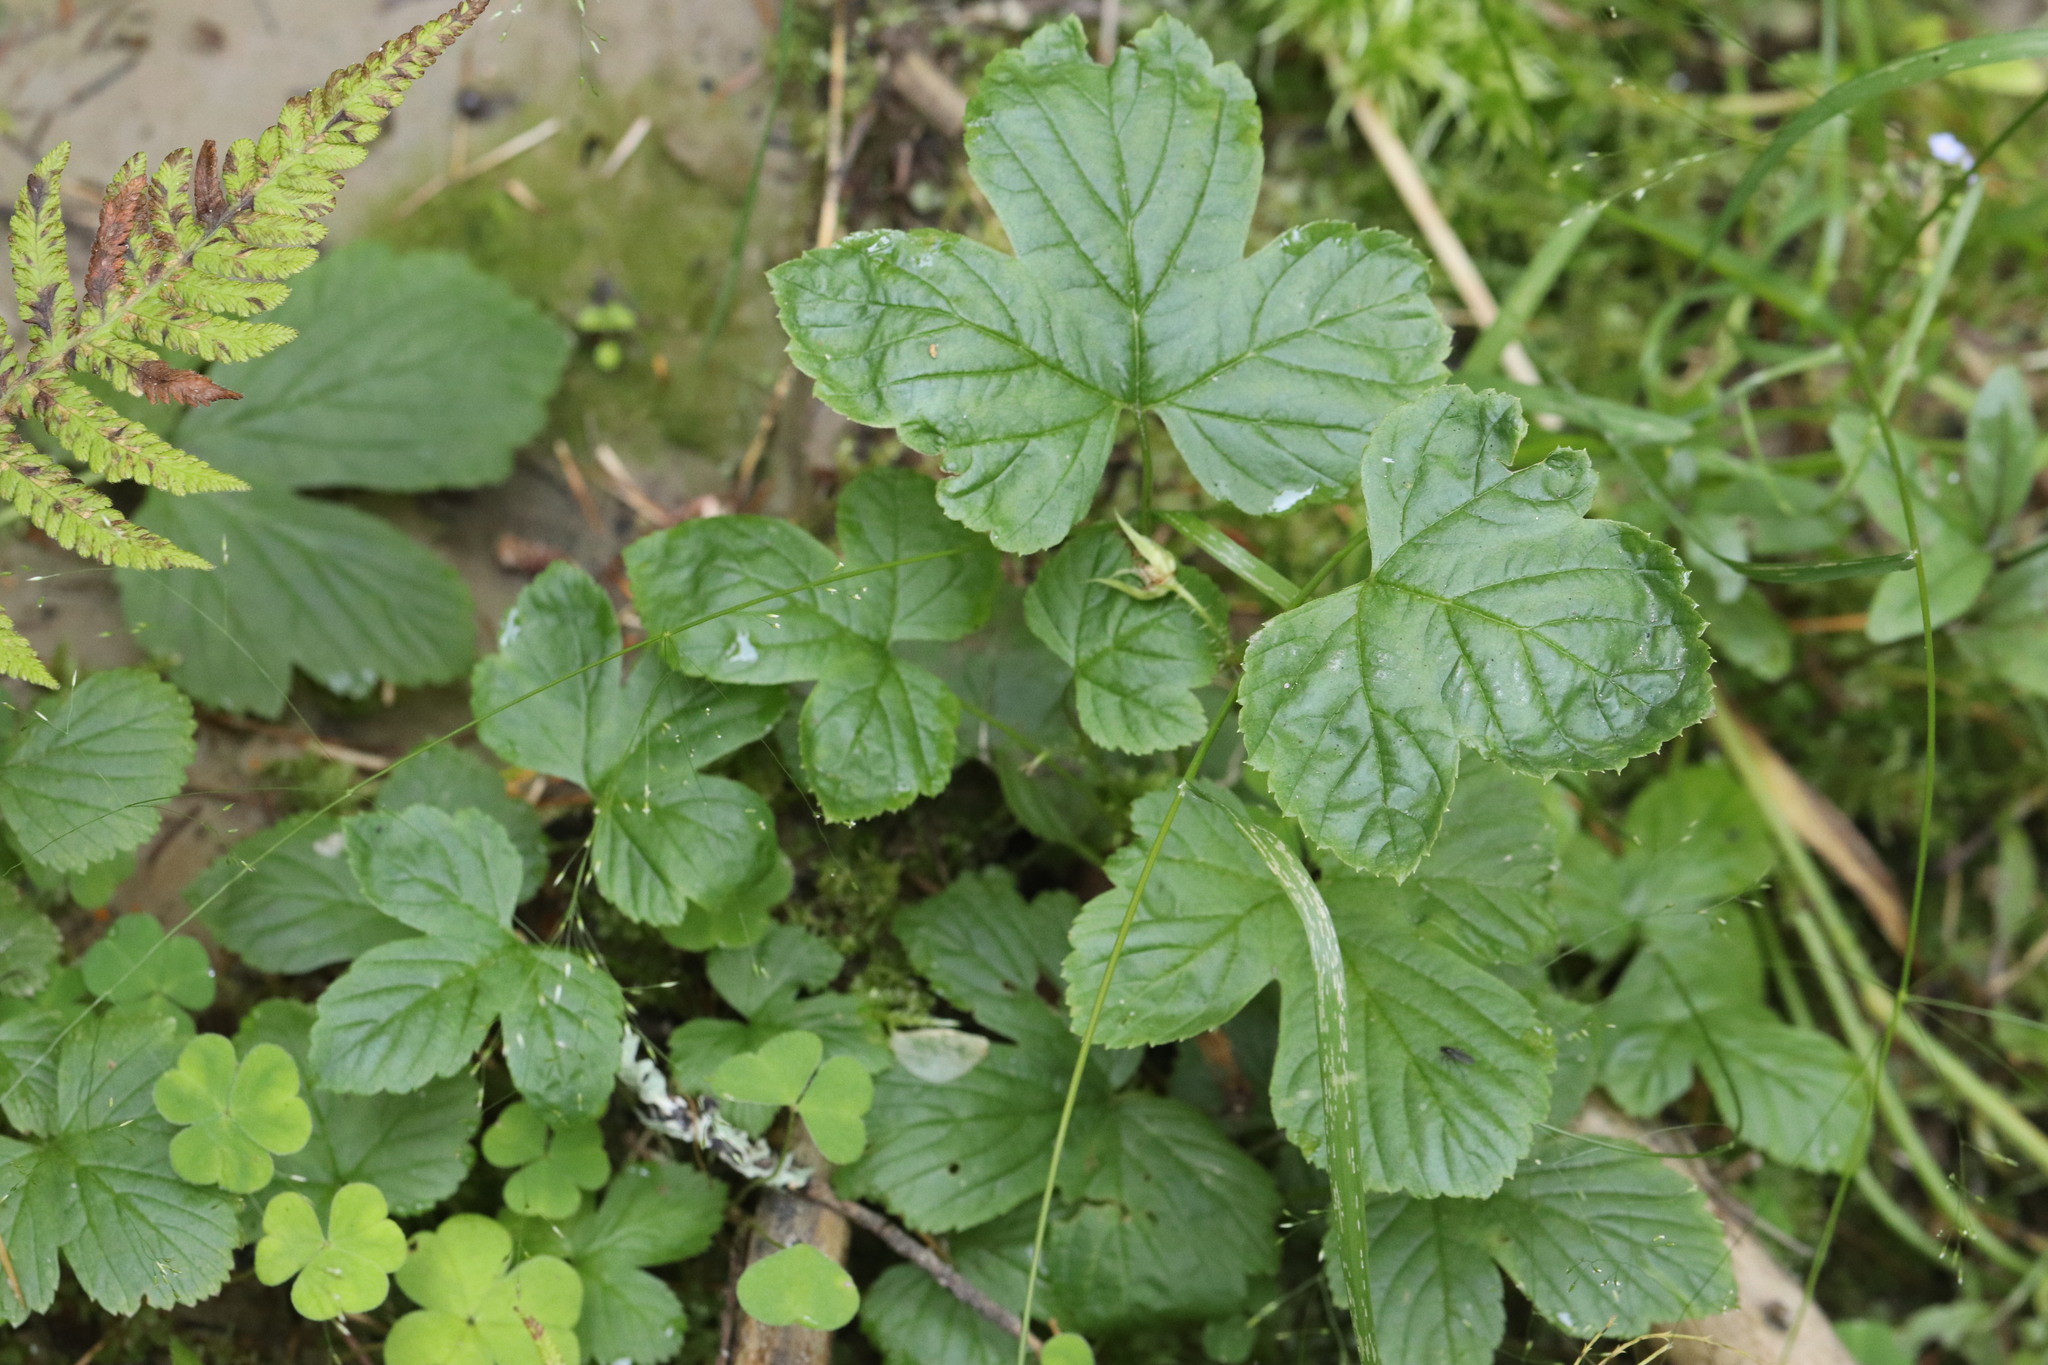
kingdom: Plantae
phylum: Tracheophyta
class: Magnoliopsida
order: Rosales
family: Rosaceae
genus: Rubus
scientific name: Rubus humulifolius
